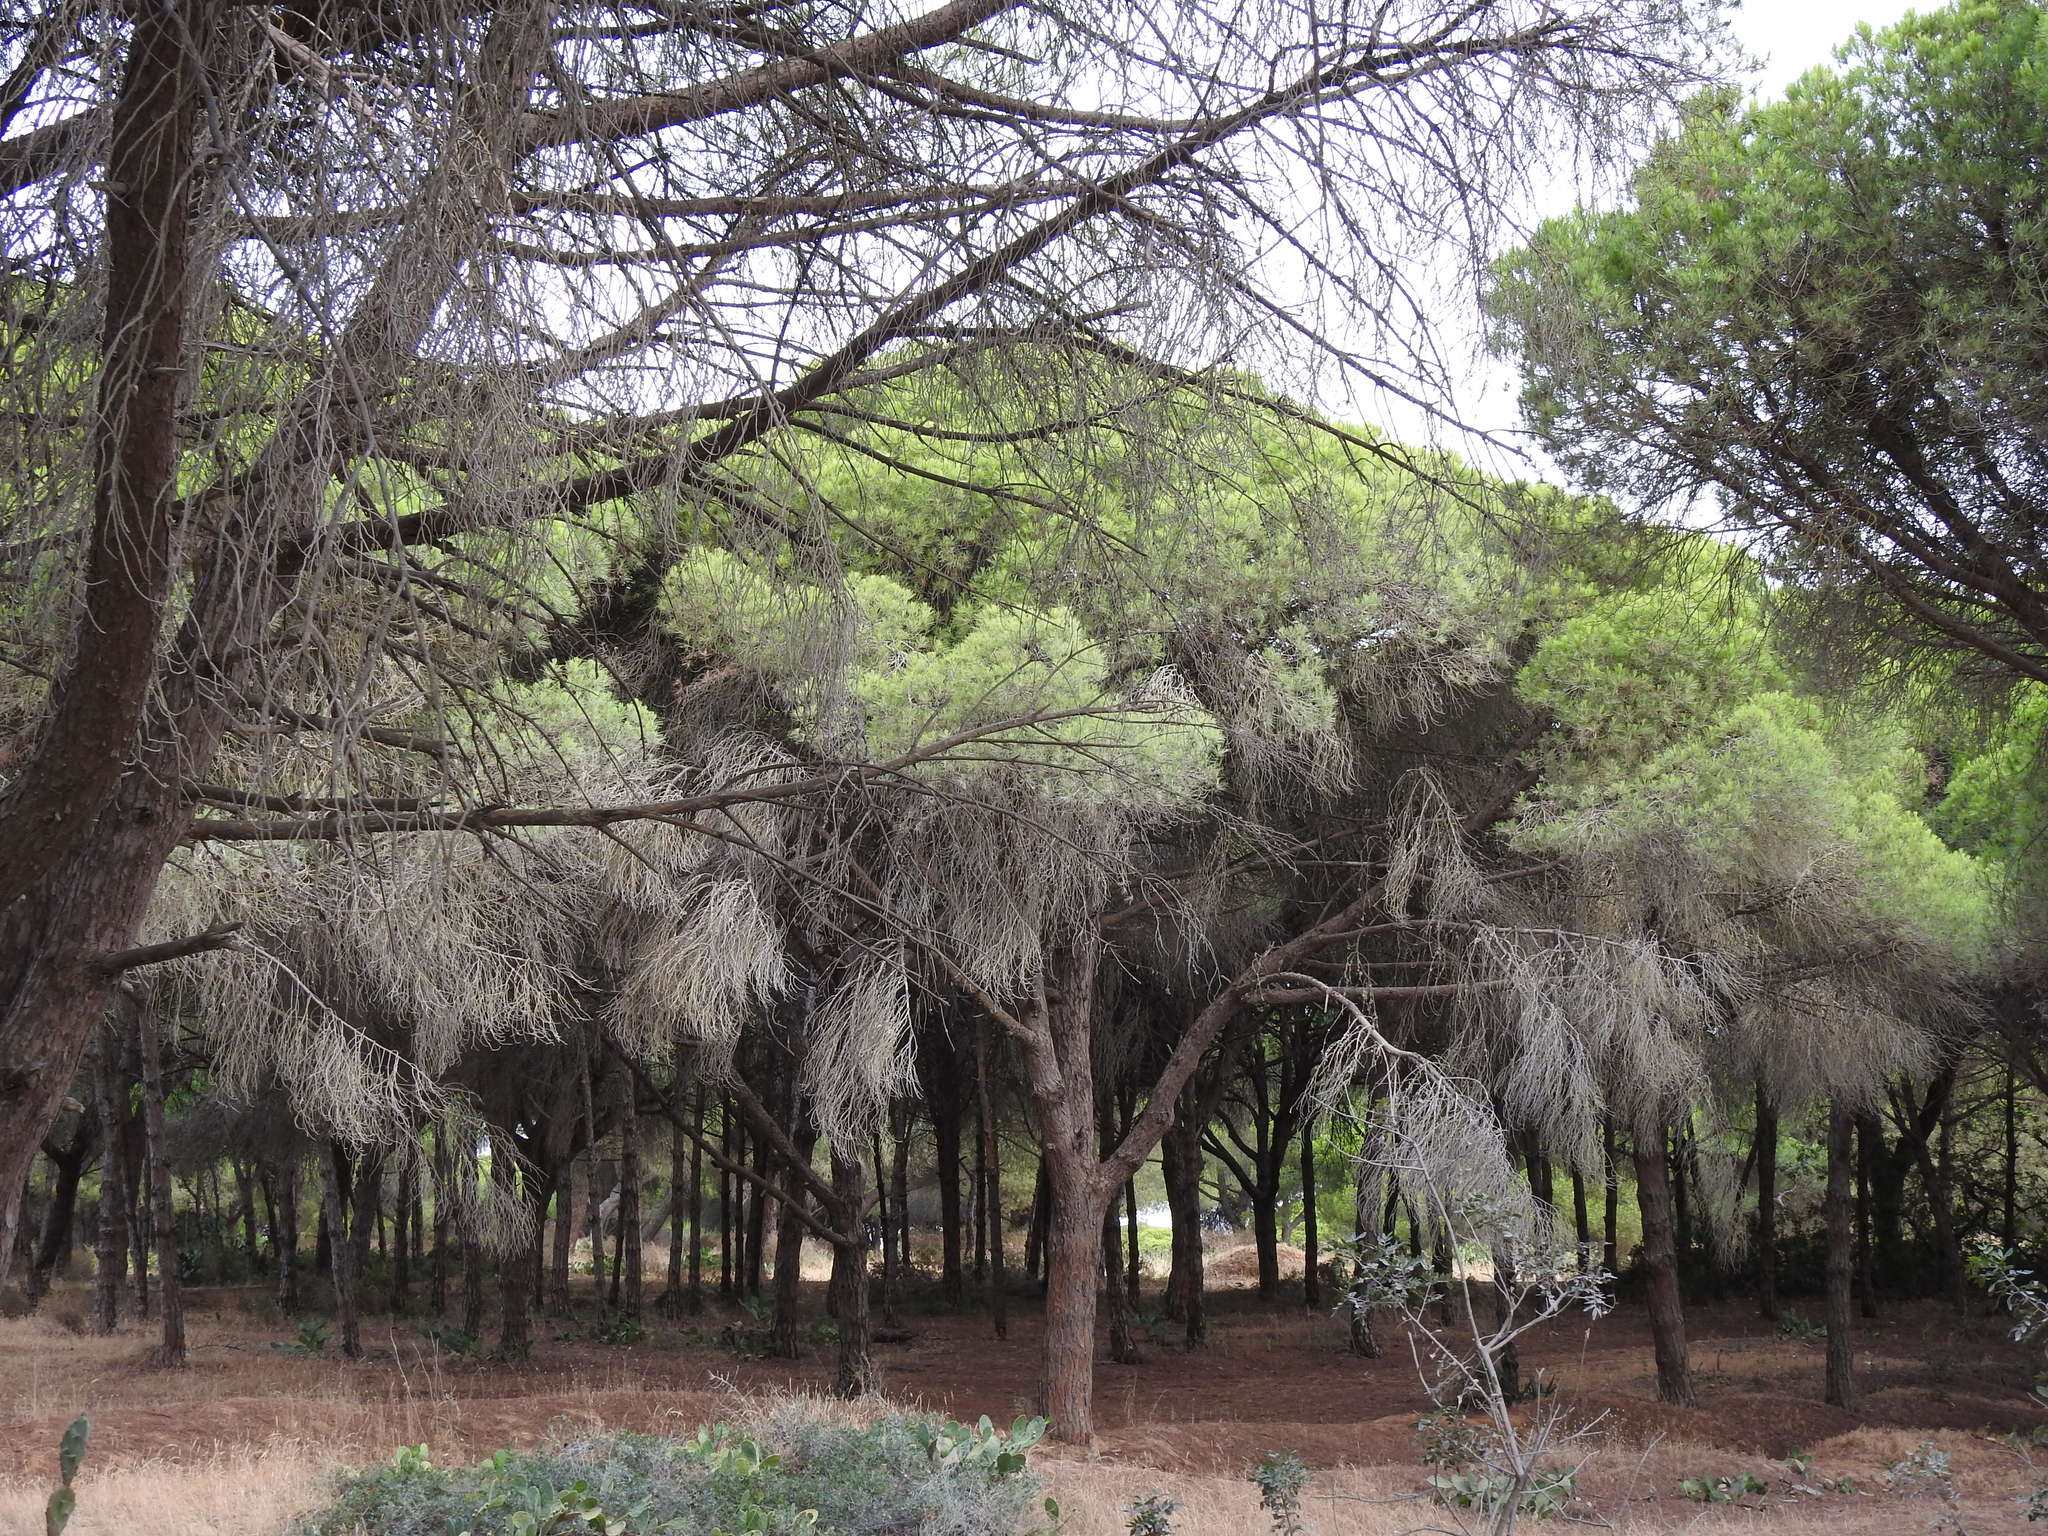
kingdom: Plantae
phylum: Tracheophyta
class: Pinopsida
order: Pinales
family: Pinaceae
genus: Pinus
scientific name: Pinus pinea
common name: Italian stone pine
